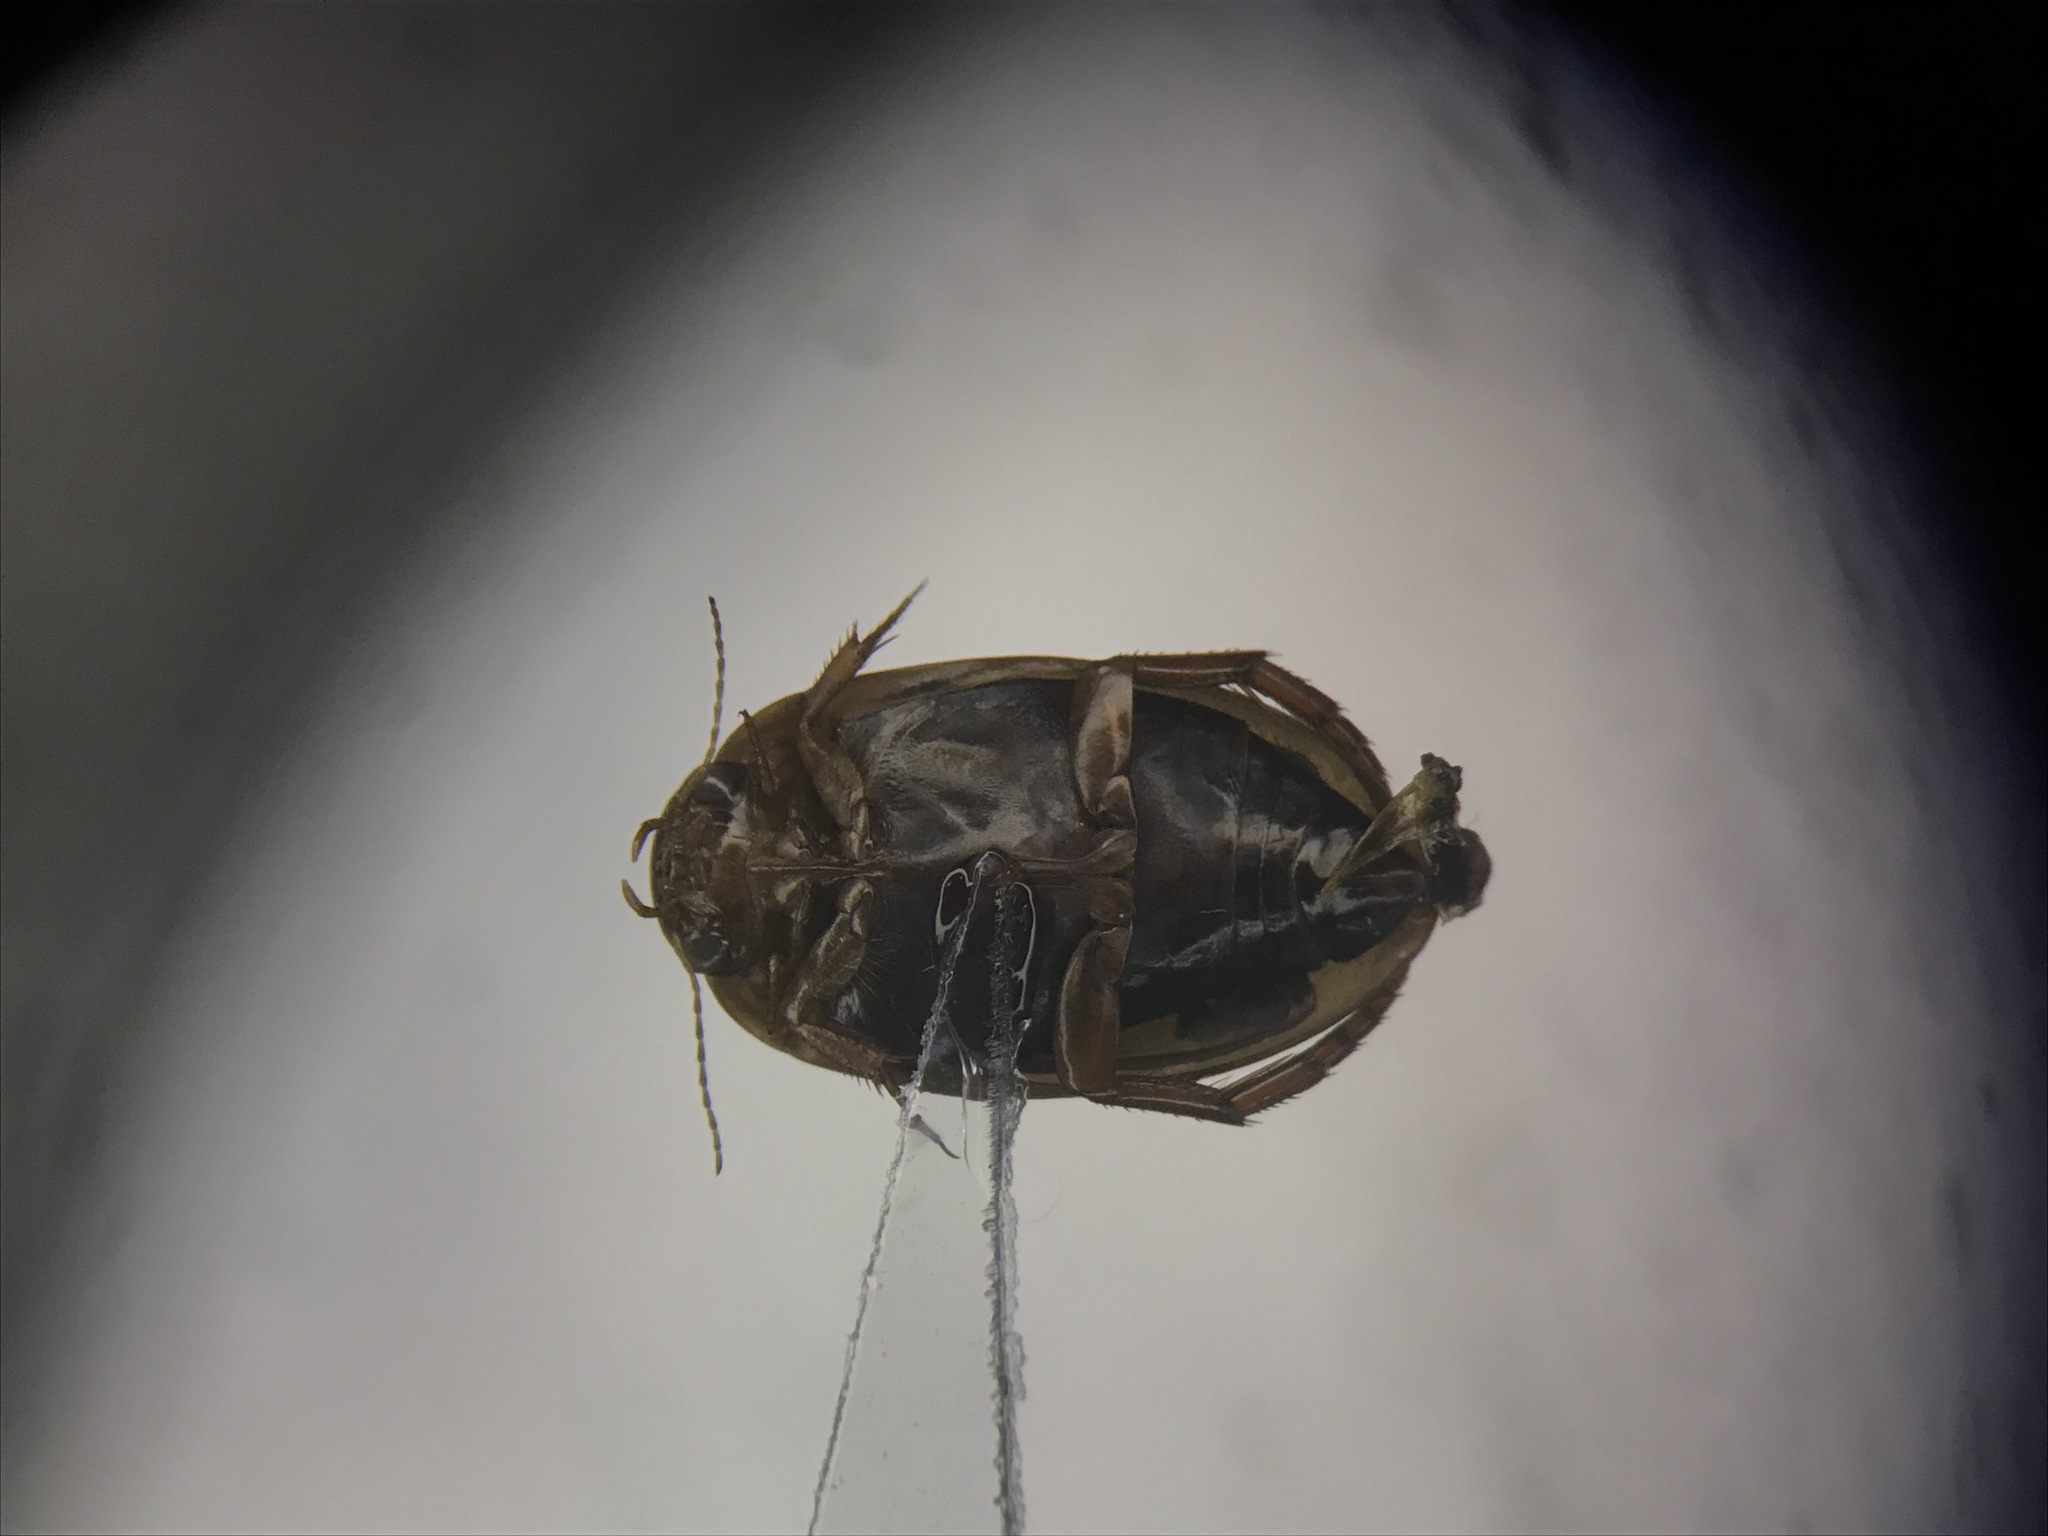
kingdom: Animalia
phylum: Arthropoda
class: Insecta
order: Coleoptera
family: Dytiscidae
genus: Agabetes
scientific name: Agabetes acuductus
